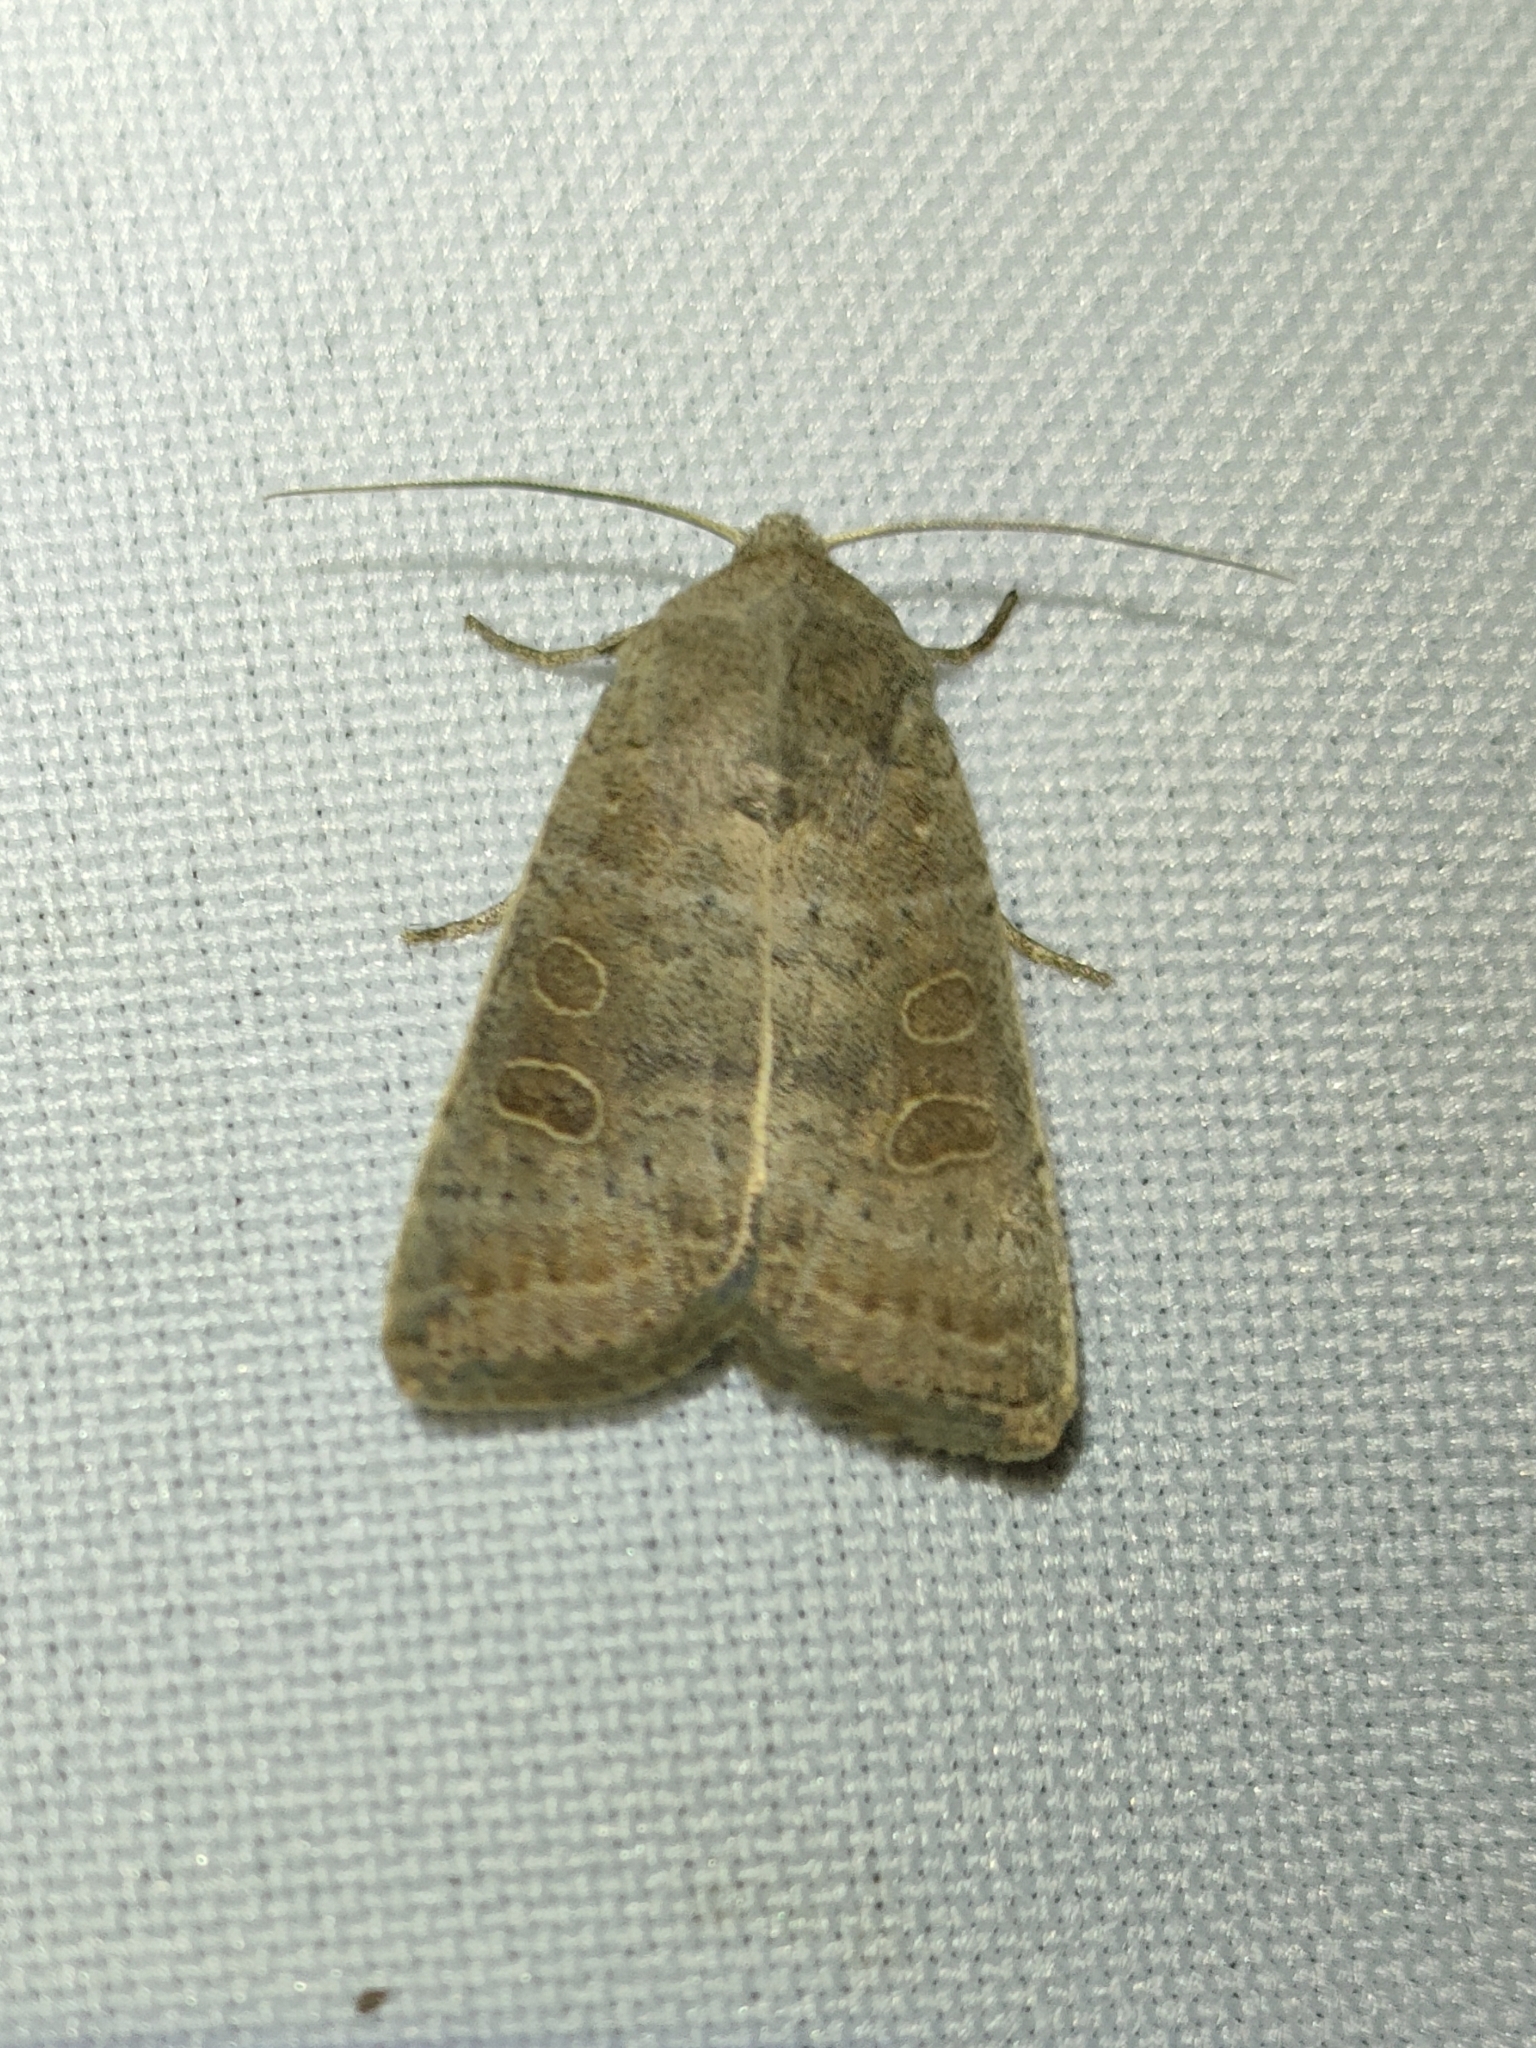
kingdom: Animalia
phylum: Arthropoda
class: Insecta
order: Lepidoptera
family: Noctuidae
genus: Hoplodrina
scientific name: Hoplodrina ambigua
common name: Vine's rustic
